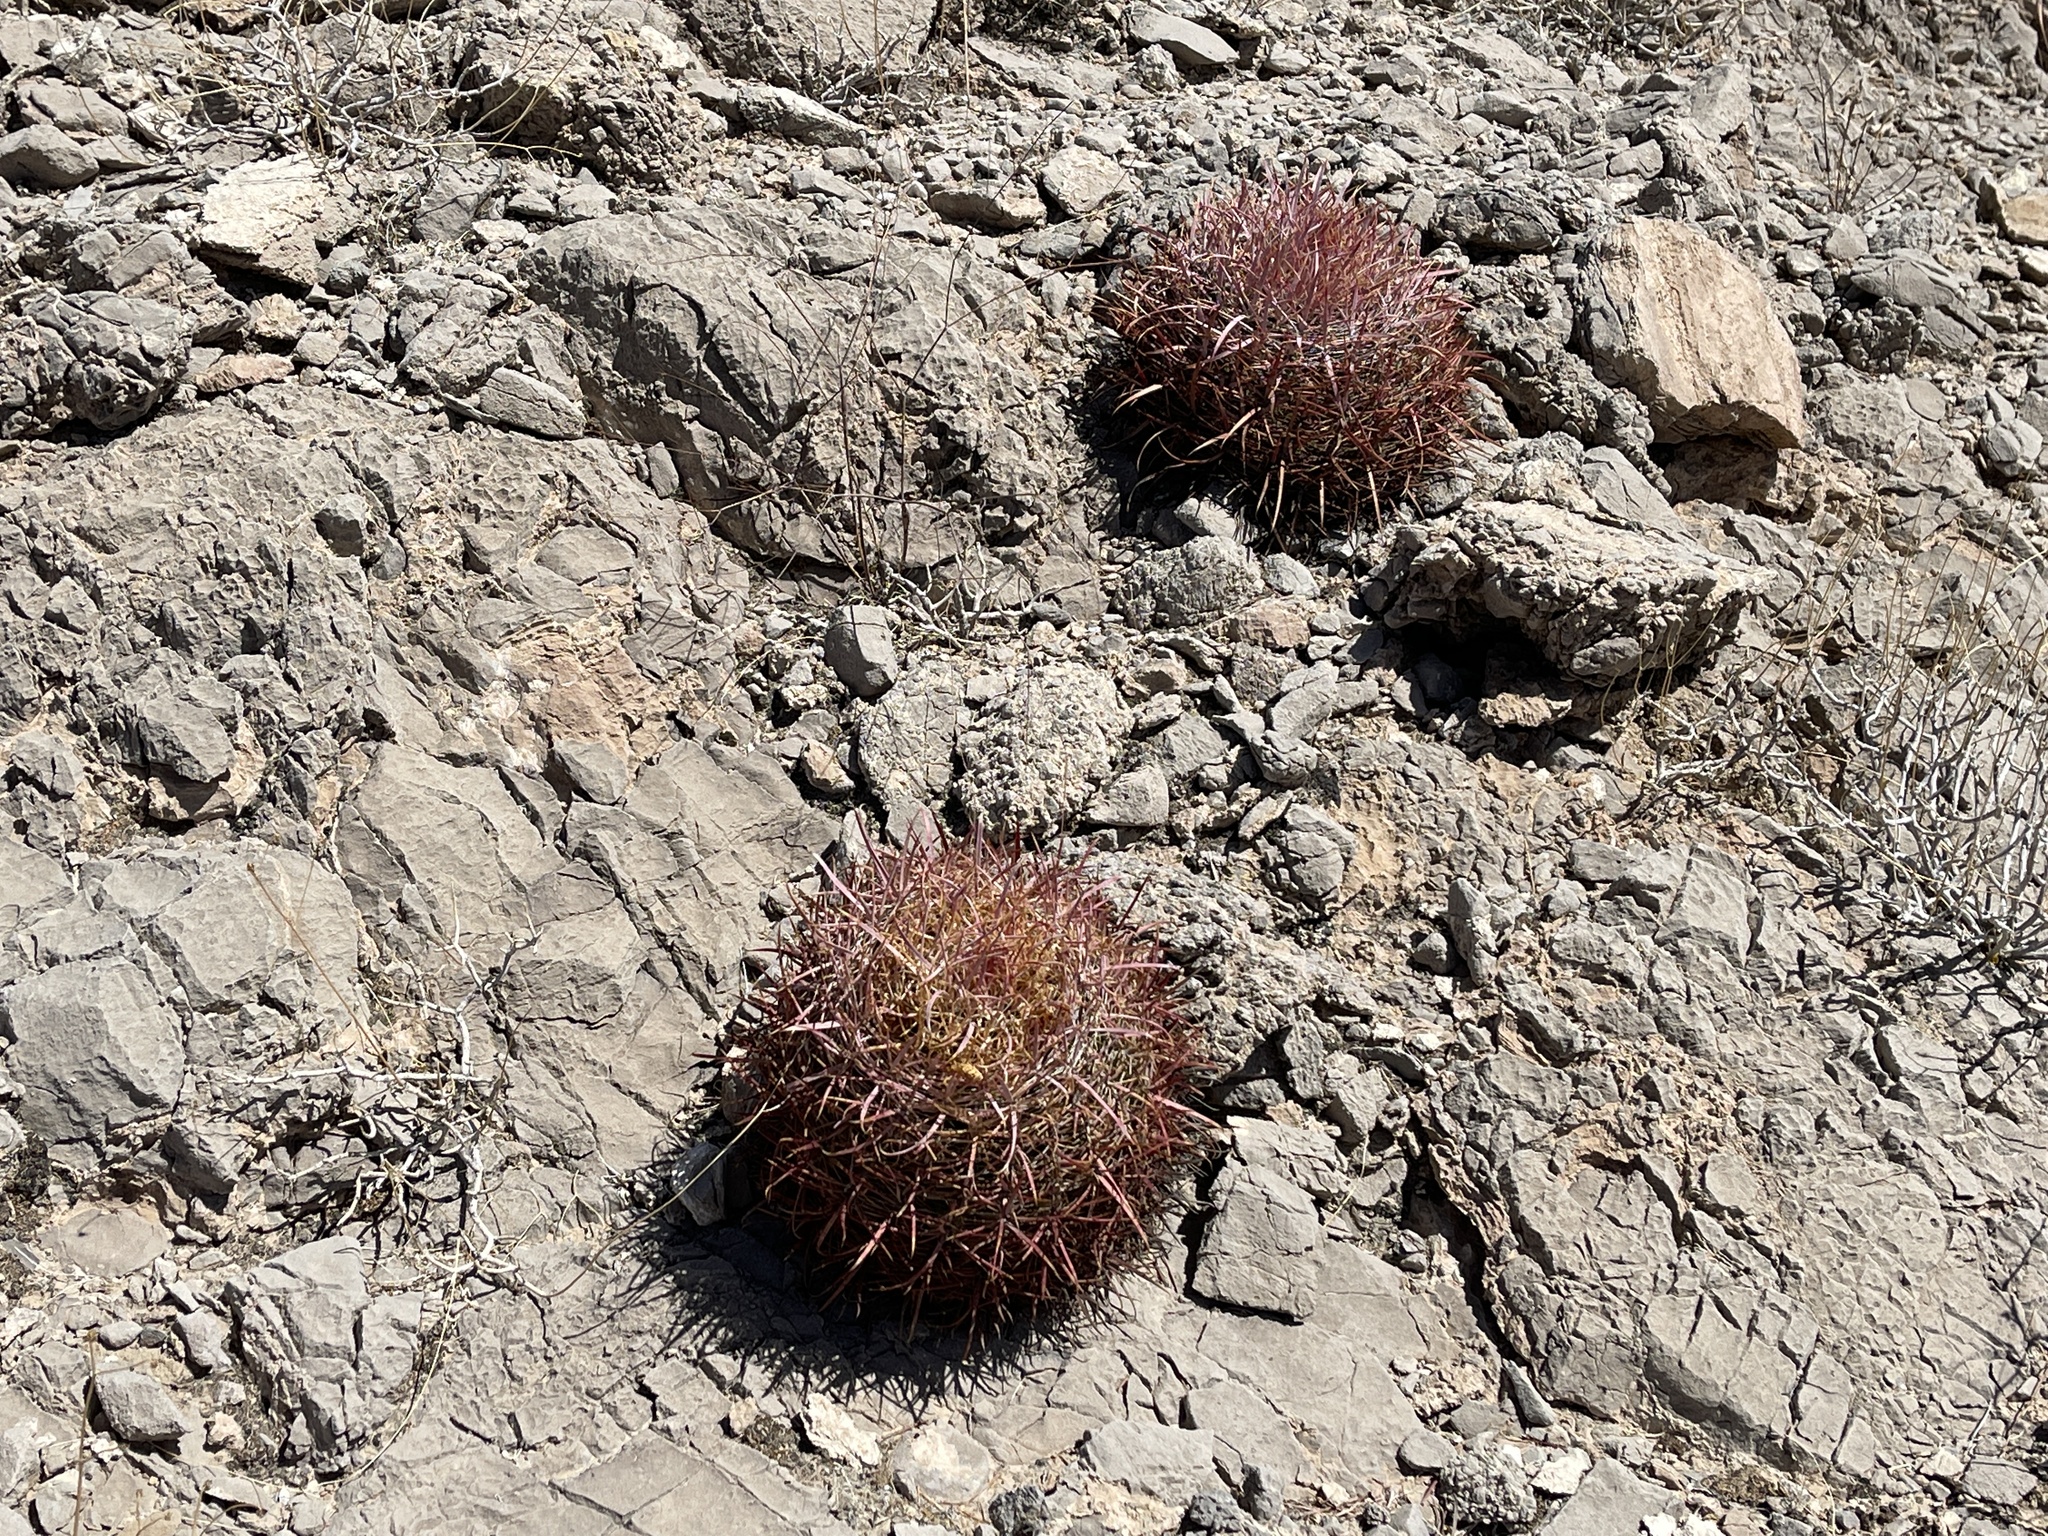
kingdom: Plantae
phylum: Tracheophyta
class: Magnoliopsida
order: Caryophyllales
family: Cactaceae
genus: Ferocactus
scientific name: Ferocactus cylindraceus
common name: California barrel cactus
